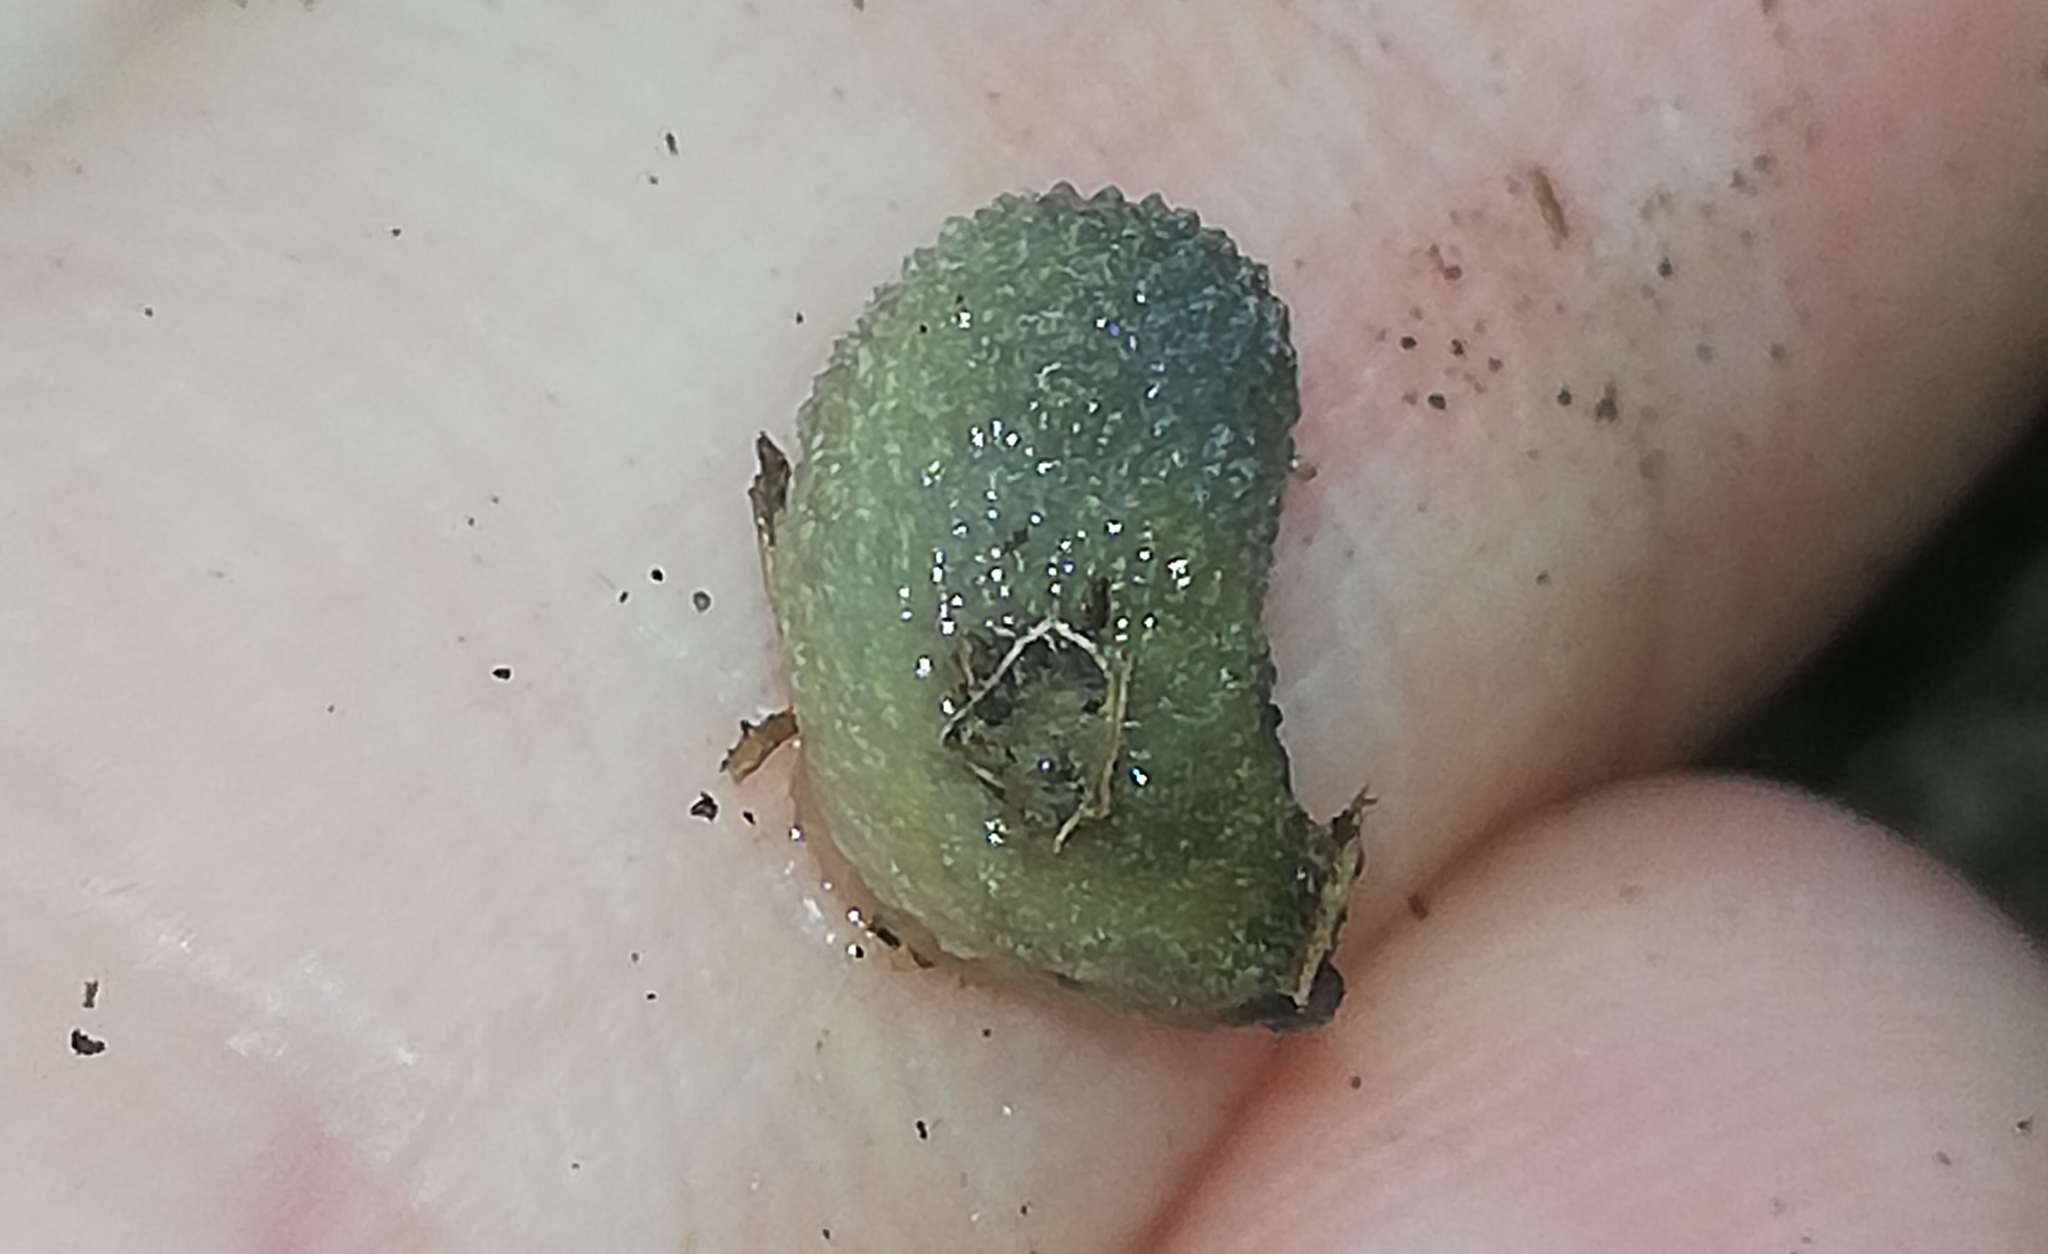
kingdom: Animalia
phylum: Mollusca
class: Gastropoda
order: Stylommatophora
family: Arionidae
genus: Arion
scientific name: Arion intermedius
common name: Hedgehog slug
